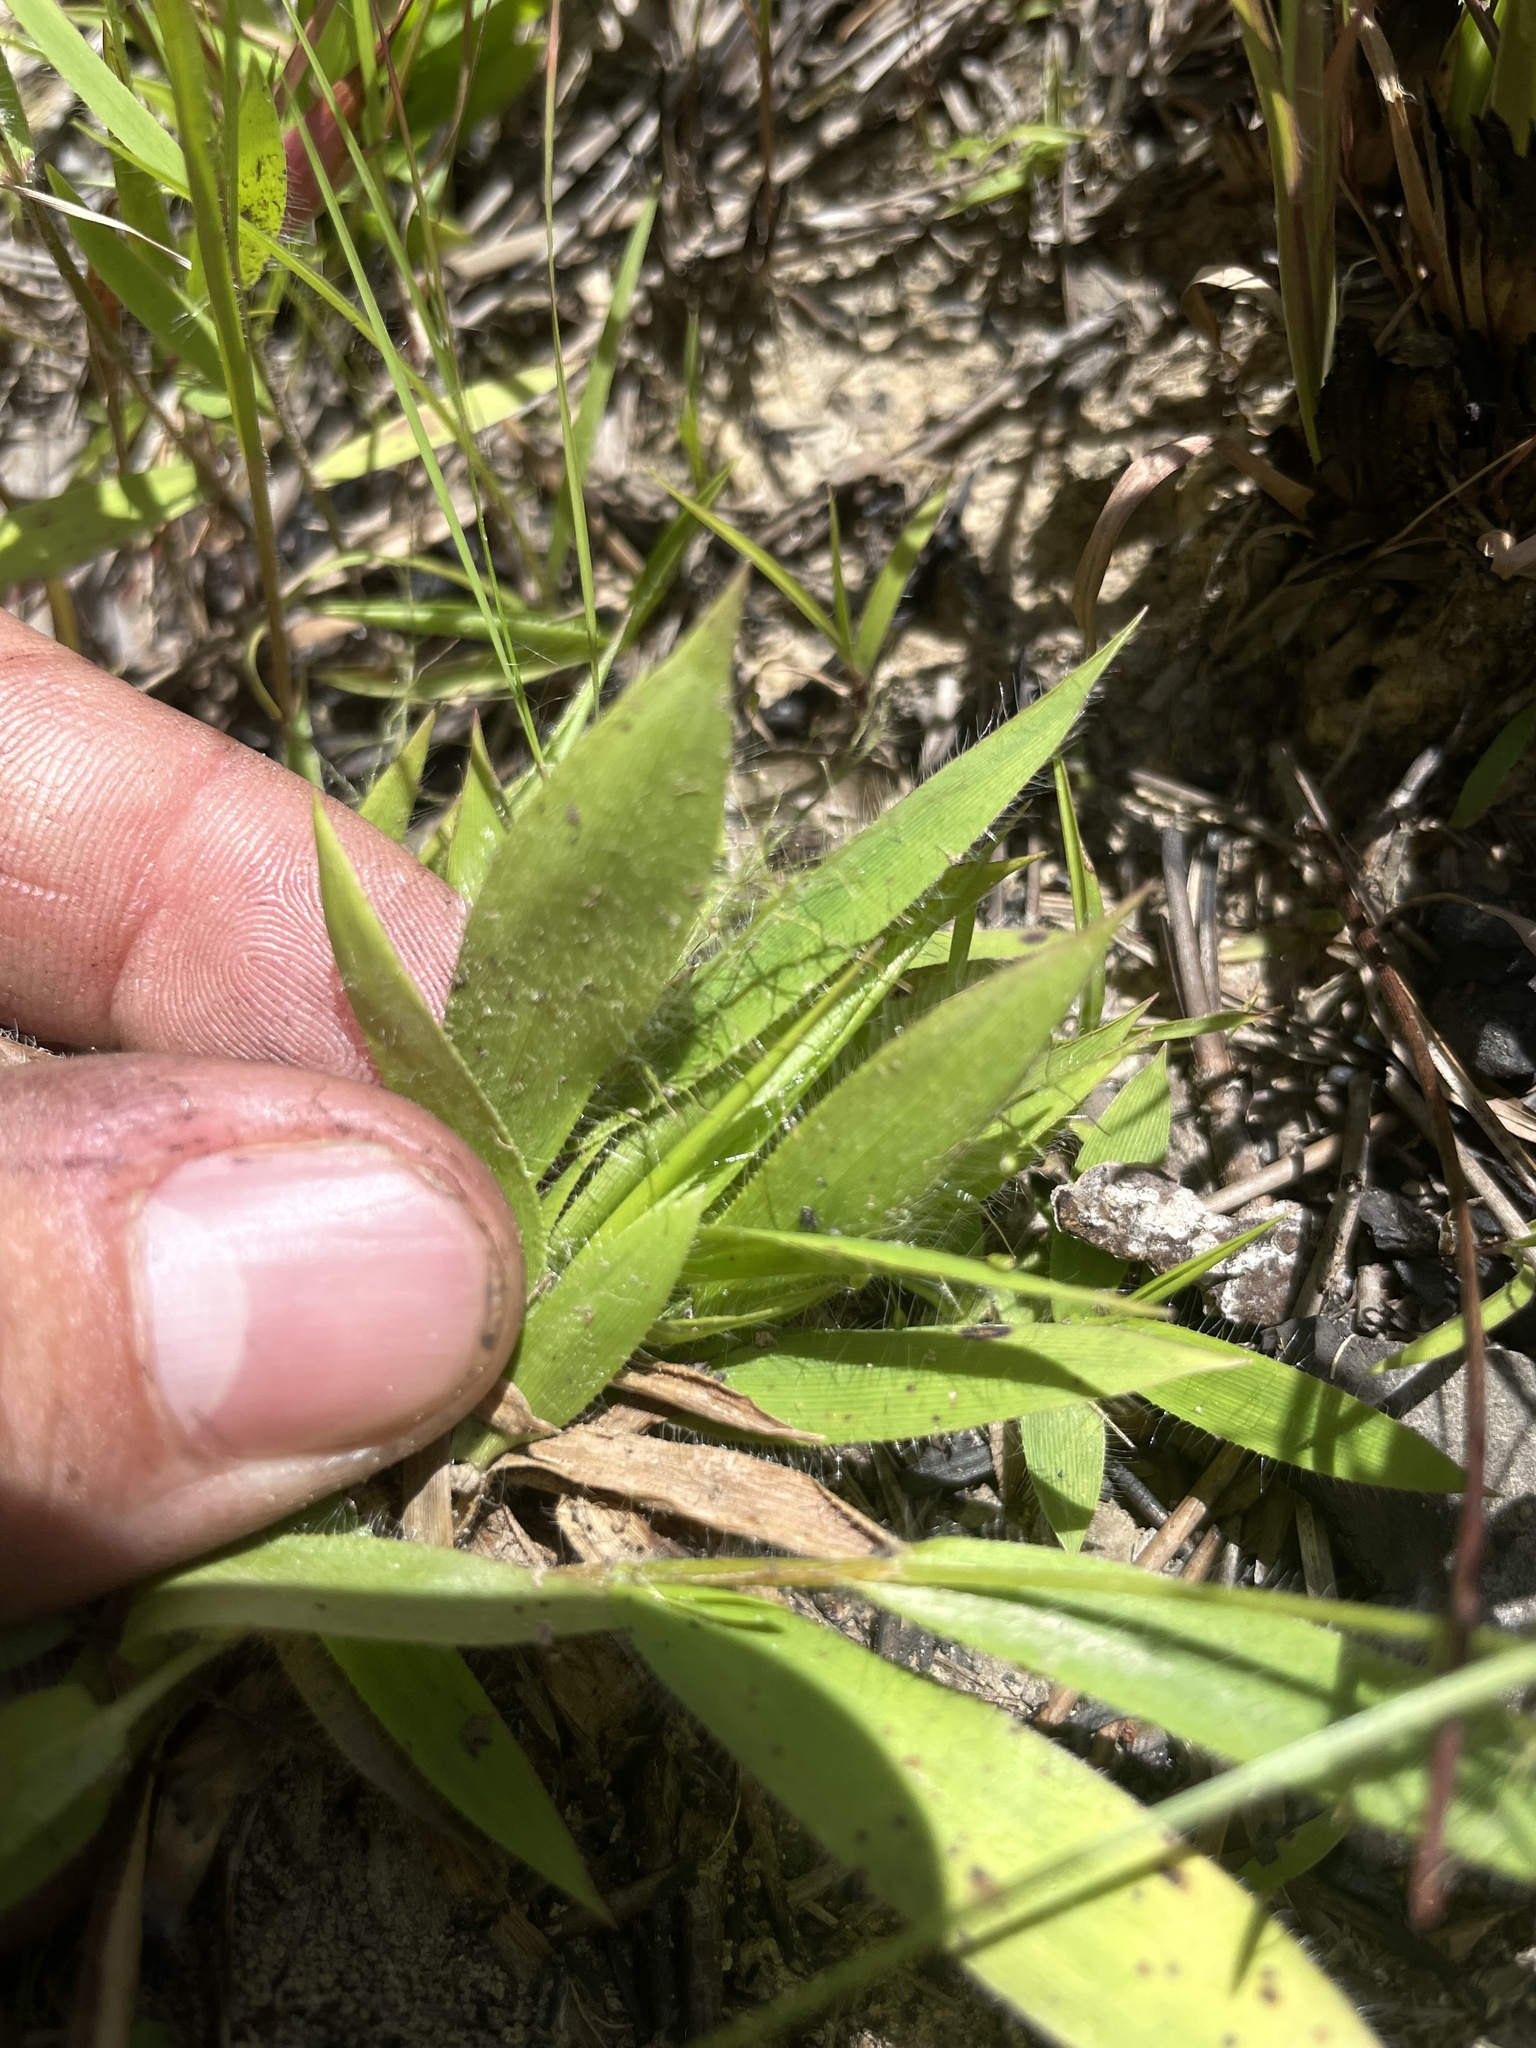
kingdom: Plantae
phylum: Tracheophyta
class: Liliopsida
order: Poales
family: Poaceae
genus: Dichanthelium
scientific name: Dichanthelium strigosum
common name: Cushion-tuft panic grass
